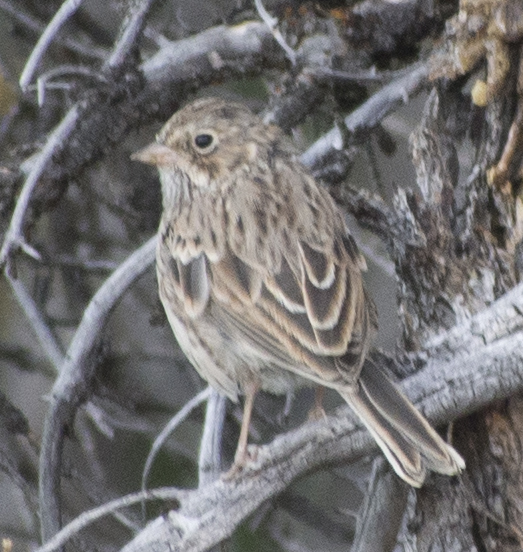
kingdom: Animalia
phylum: Chordata
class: Aves
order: Passeriformes
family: Passerellidae
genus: Pooecetes
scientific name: Pooecetes gramineus
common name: Vesper sparrow
